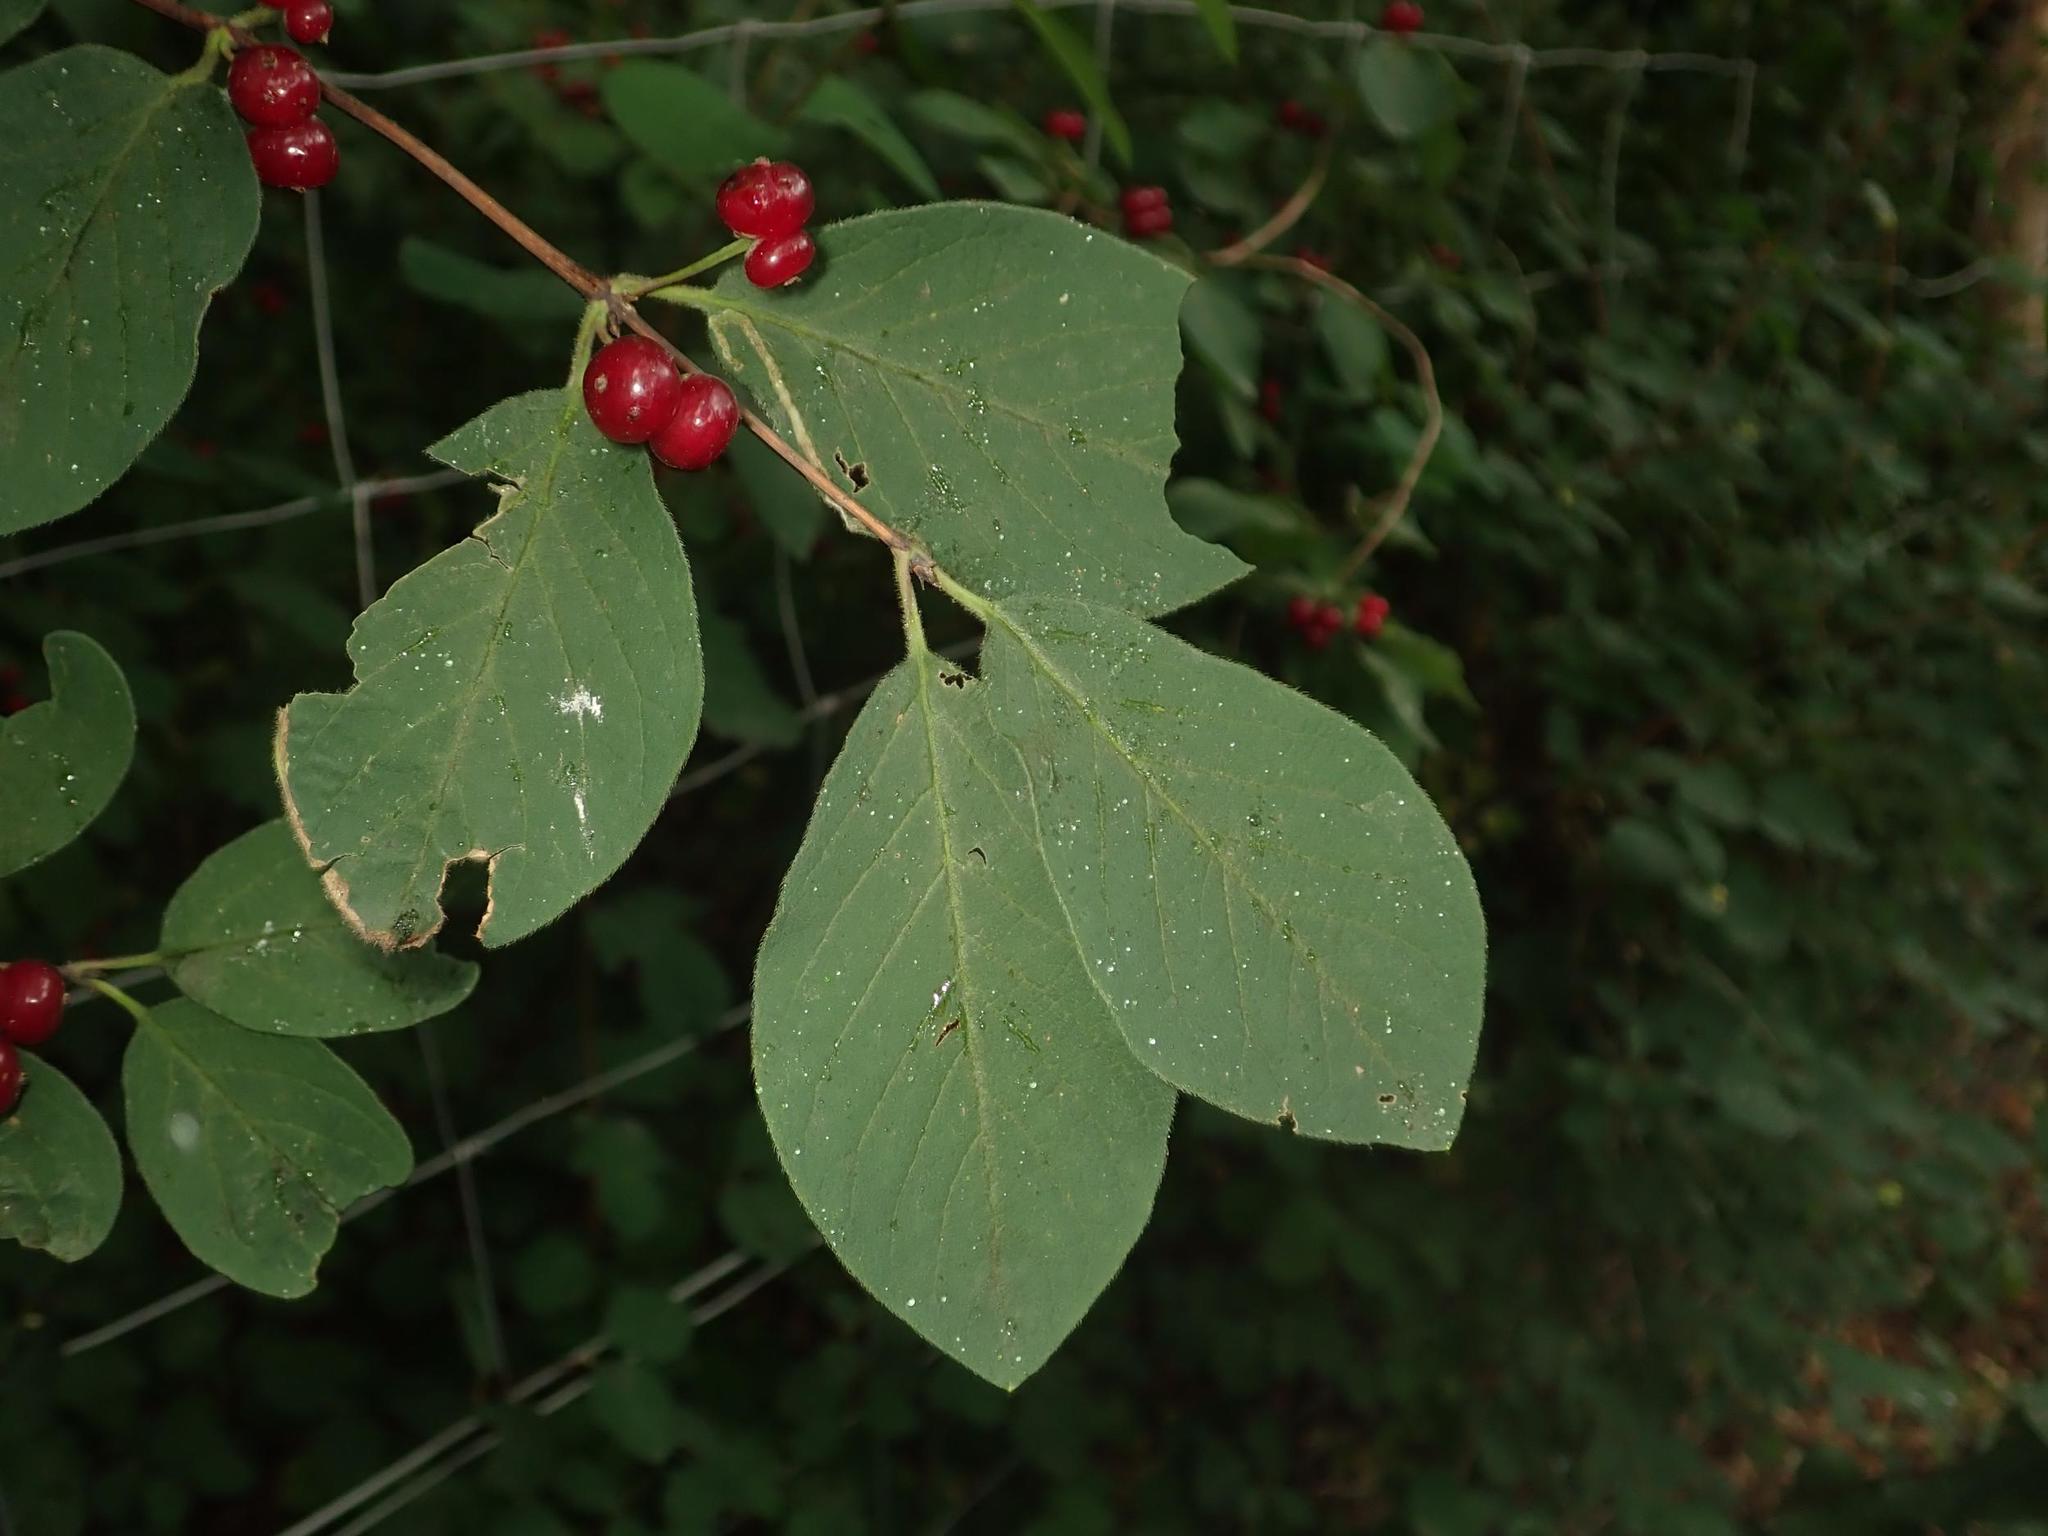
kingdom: Plantae
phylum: Tracheophyta
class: Magnoliopsida
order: Dipsacales
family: Caprifoliaceae
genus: Lonicera
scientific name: Lonicera xylosteum
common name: Fly honeysuckle
